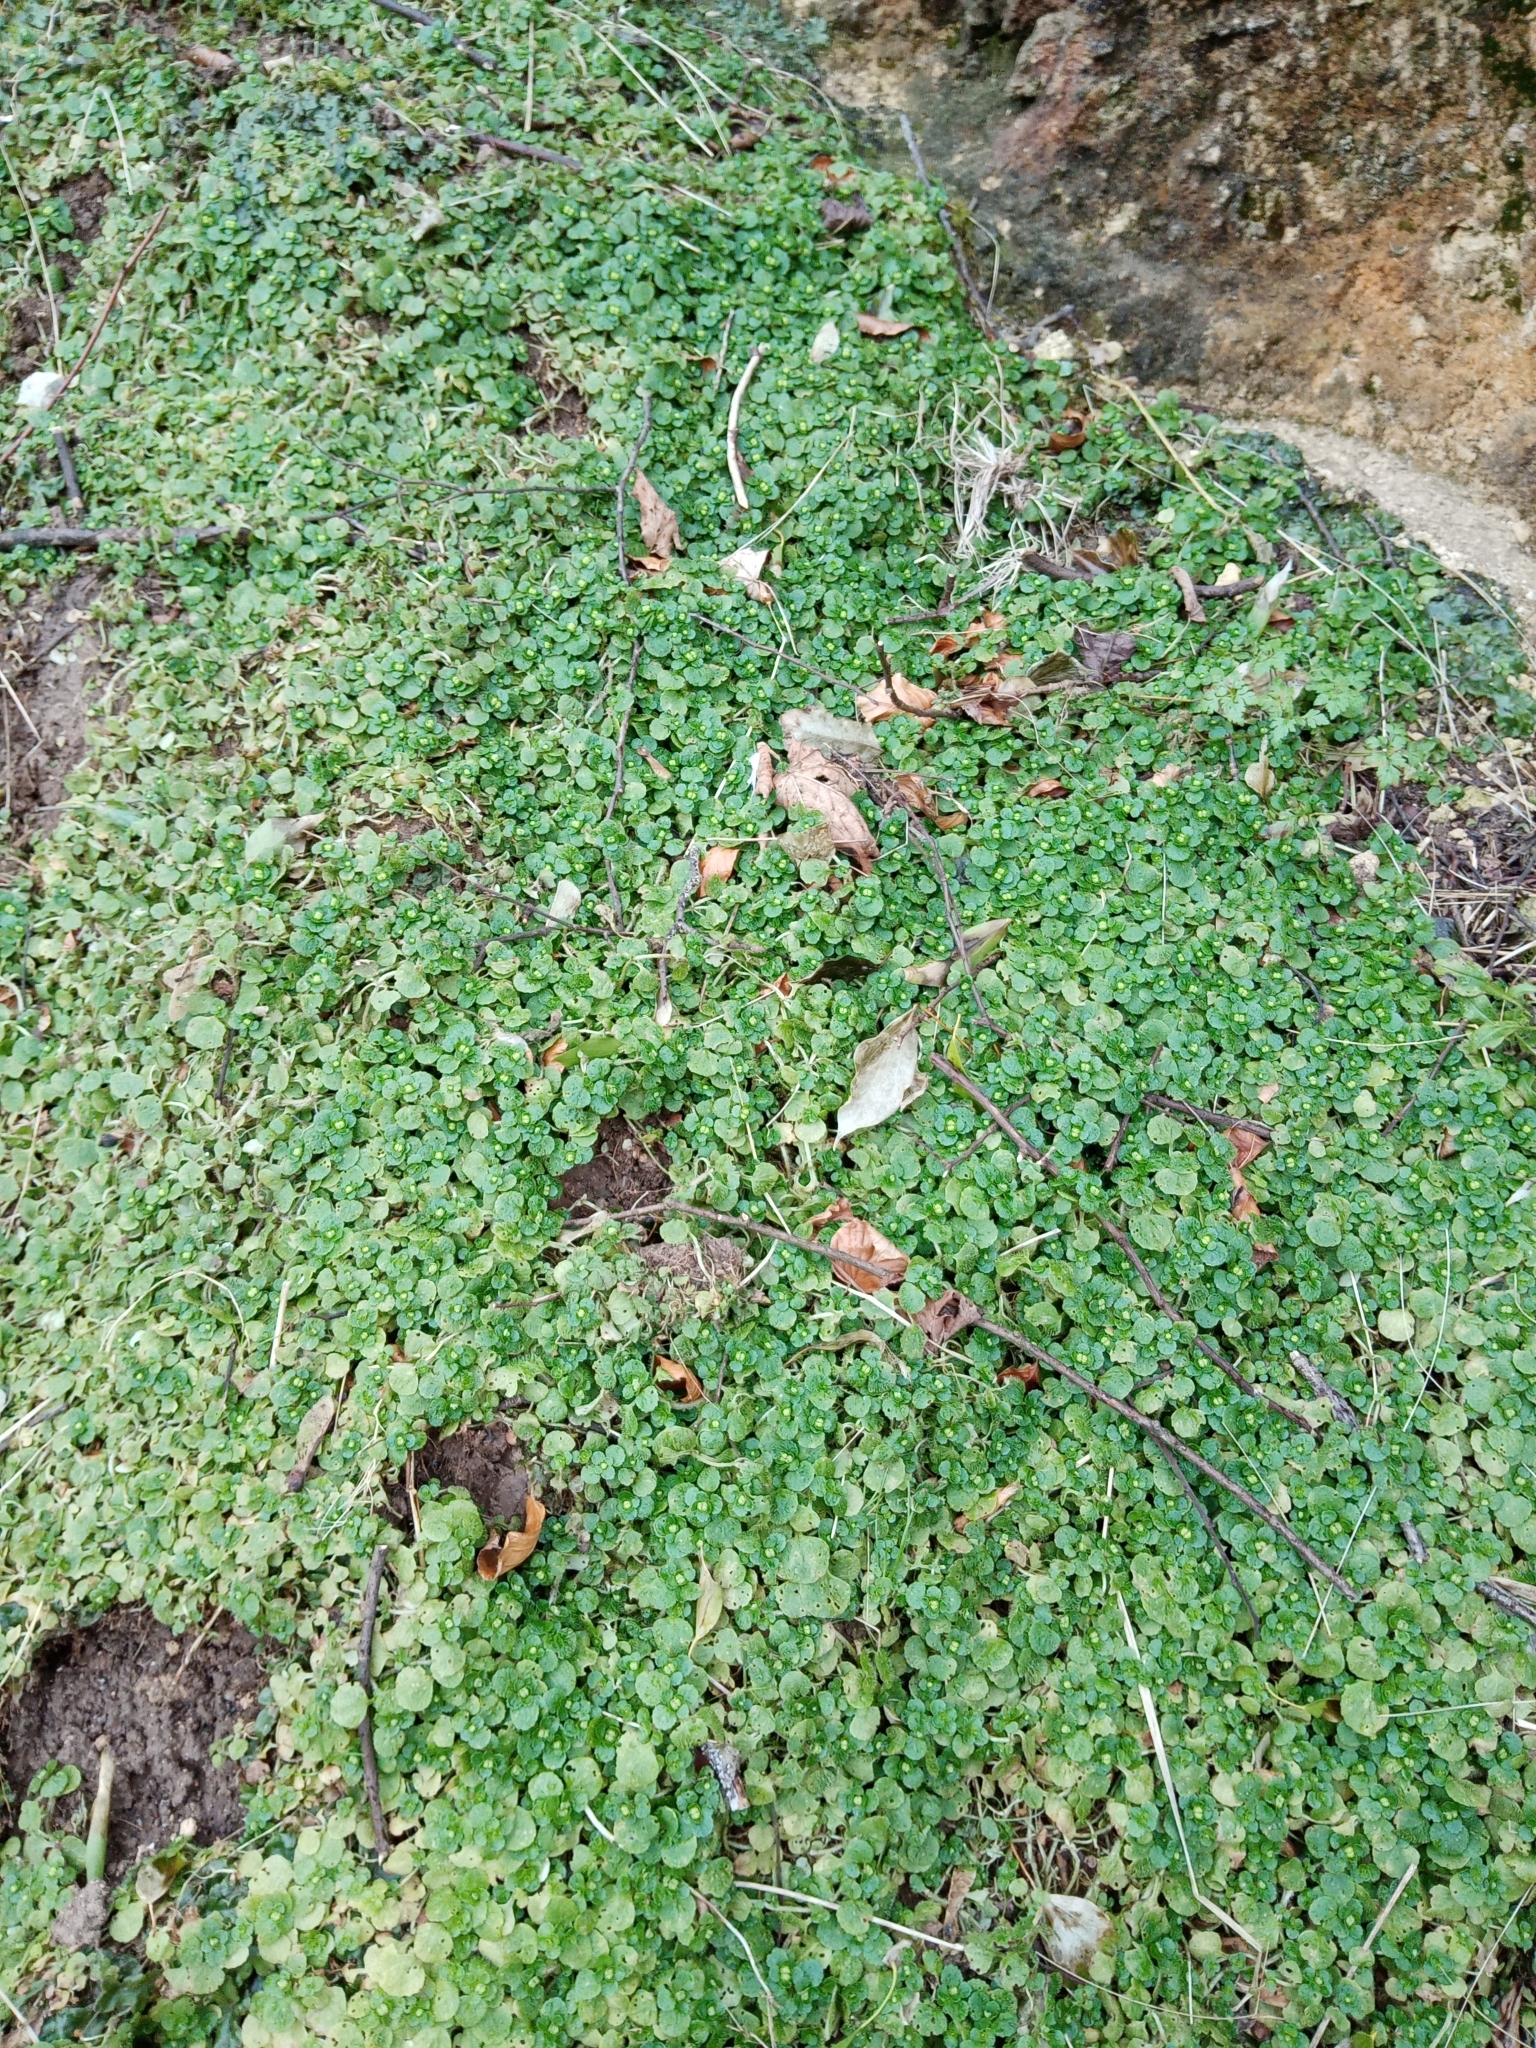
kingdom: Plantae
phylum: Tracheophyta
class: Magnoliopsida
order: Saxifragales
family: Saxifragaceae
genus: Chrysosplenium
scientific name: Chrysosplenium oppositifolium
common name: Opposite-leaved golden-saxifrage
